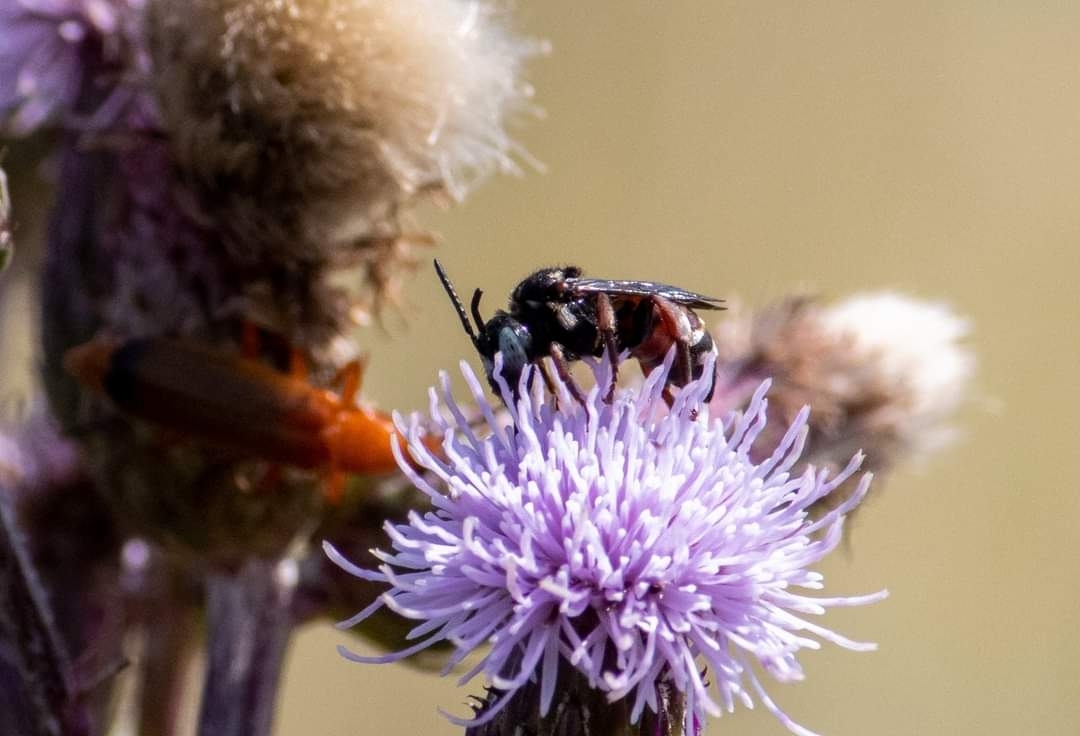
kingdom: Animalia
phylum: Arthropoda
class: Insecta
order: Hymenoptera
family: Apidae
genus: Epeoloides
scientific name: Epeoloides coecutiens
